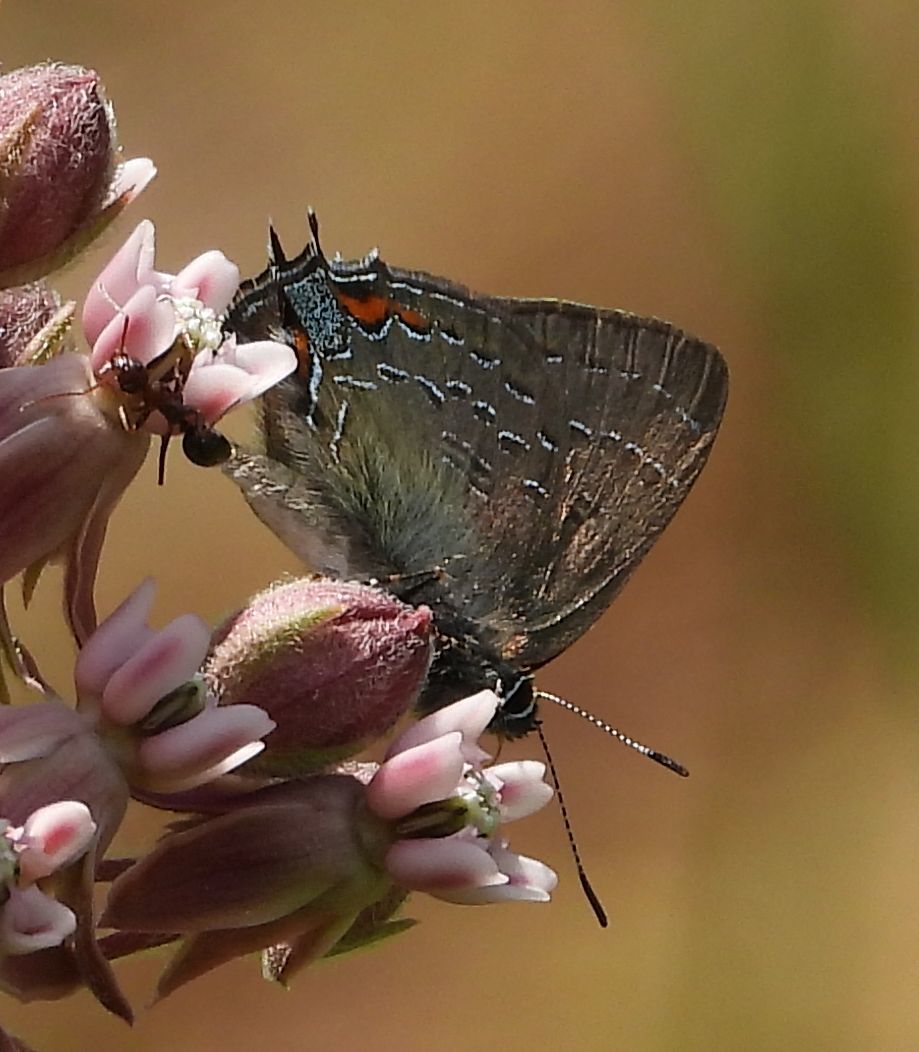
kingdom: Animalia
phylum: Arthropoda
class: Insecta
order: Lepidoptera
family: Lycaenidae
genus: Satyrium
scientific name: Satyrium calanus
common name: Banded hairstreak
